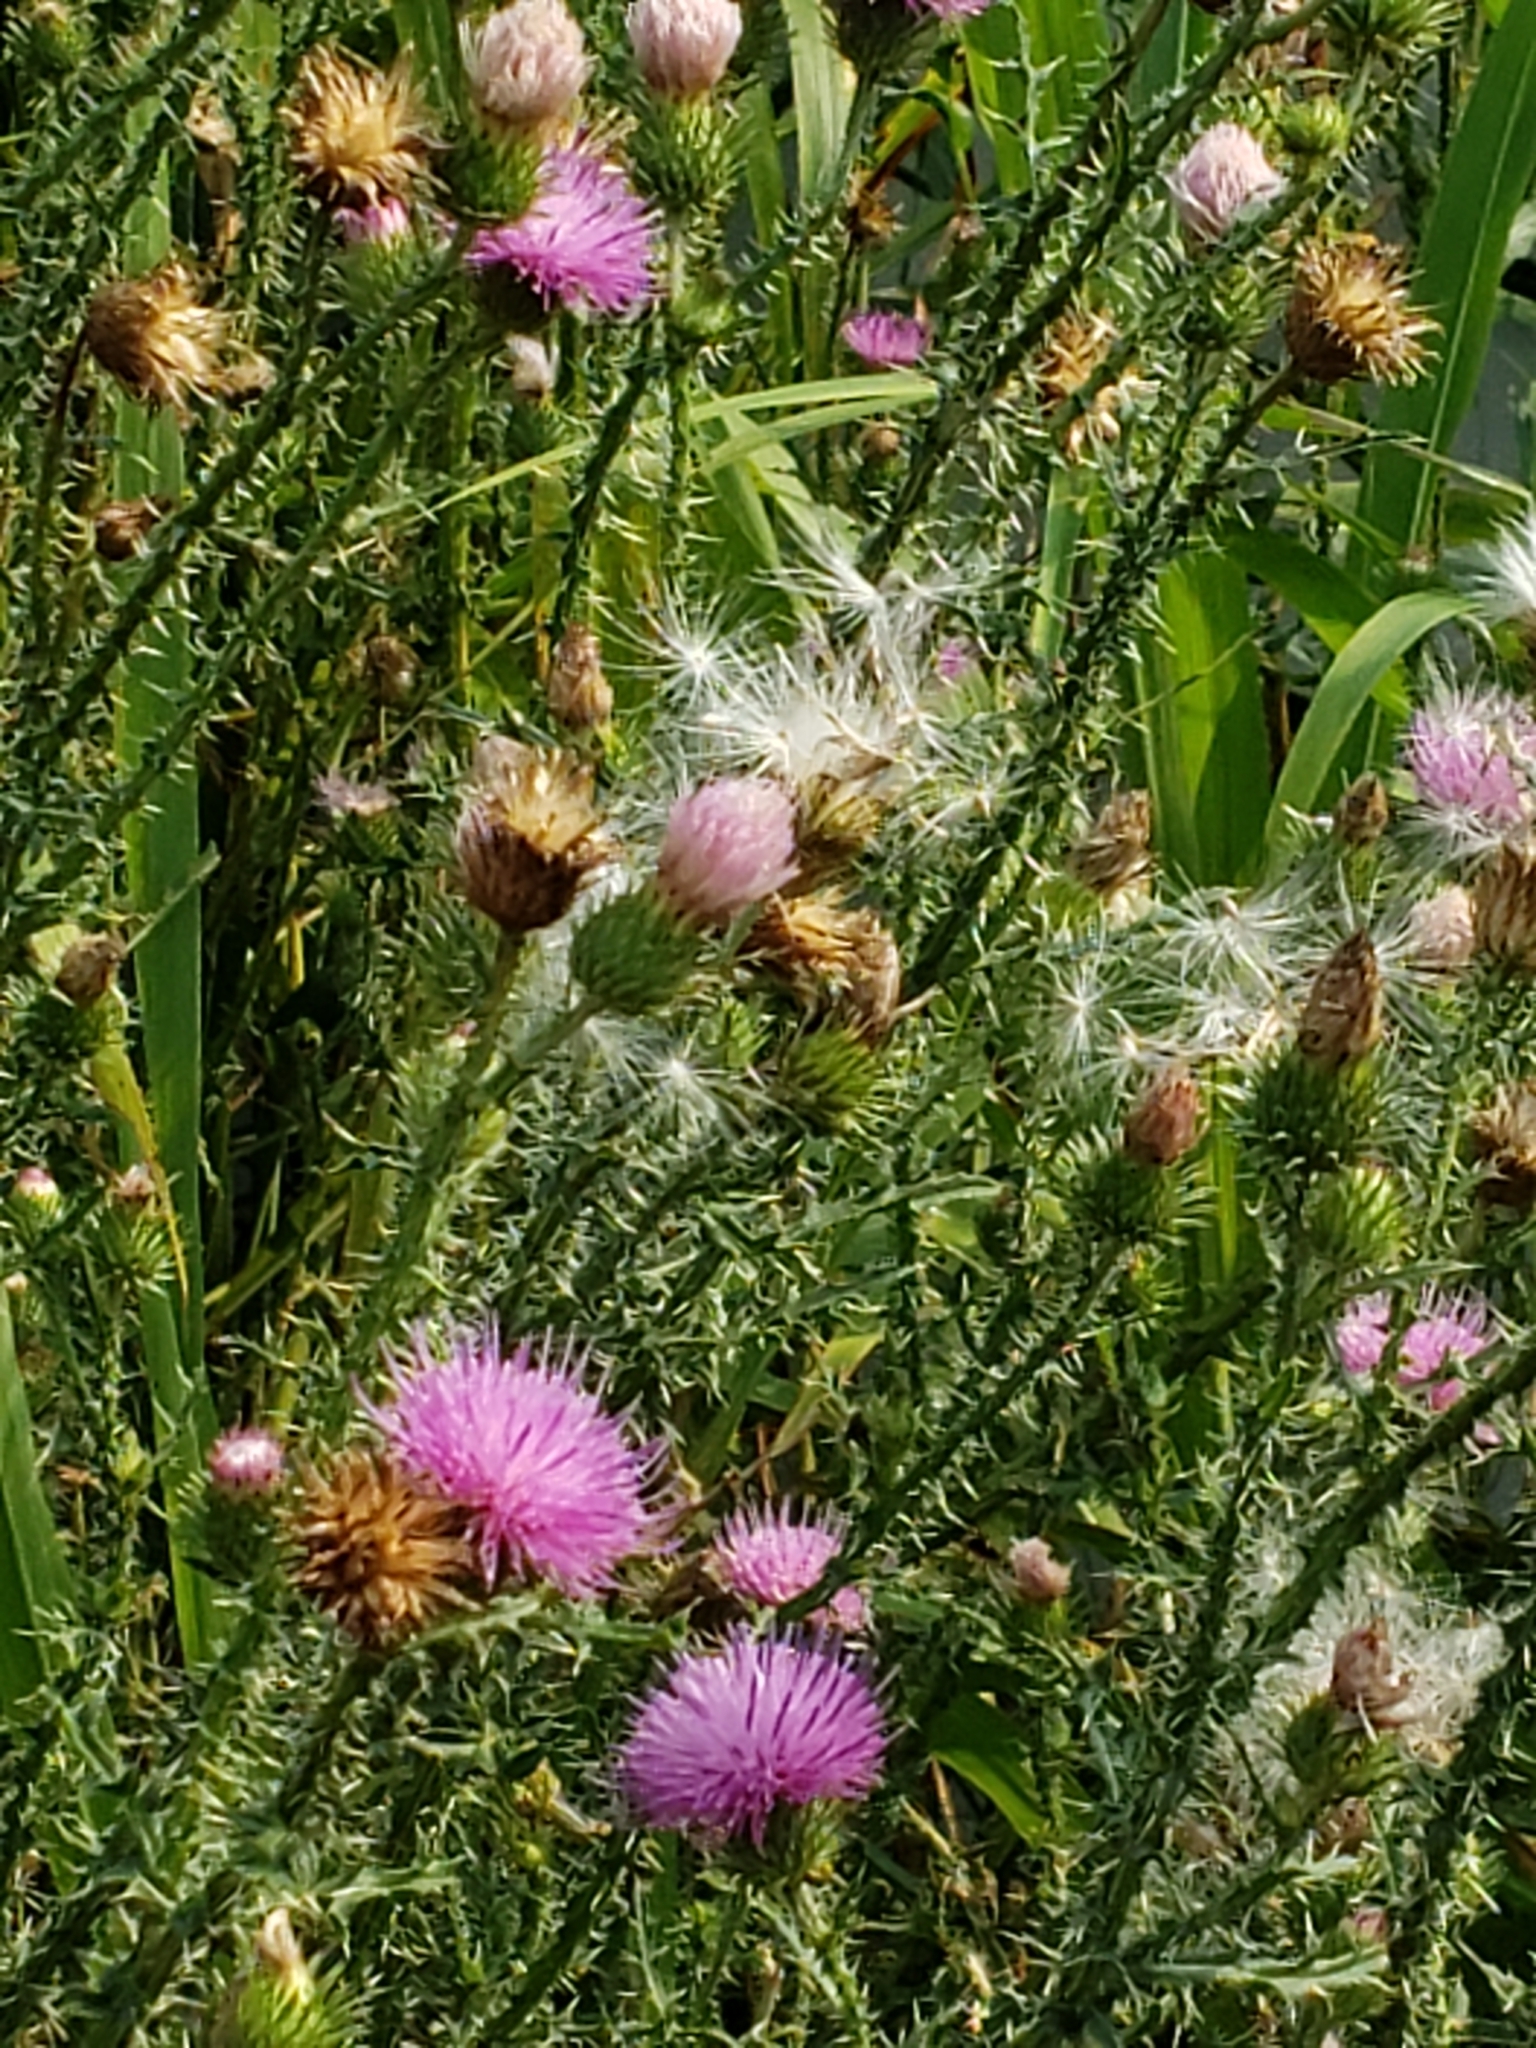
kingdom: Plantae
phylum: Tracheophyta
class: Magnoliopsida
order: Asterales
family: Asteraceae
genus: Carduus
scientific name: Carduus acanthoides
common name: Plumeless thistle
